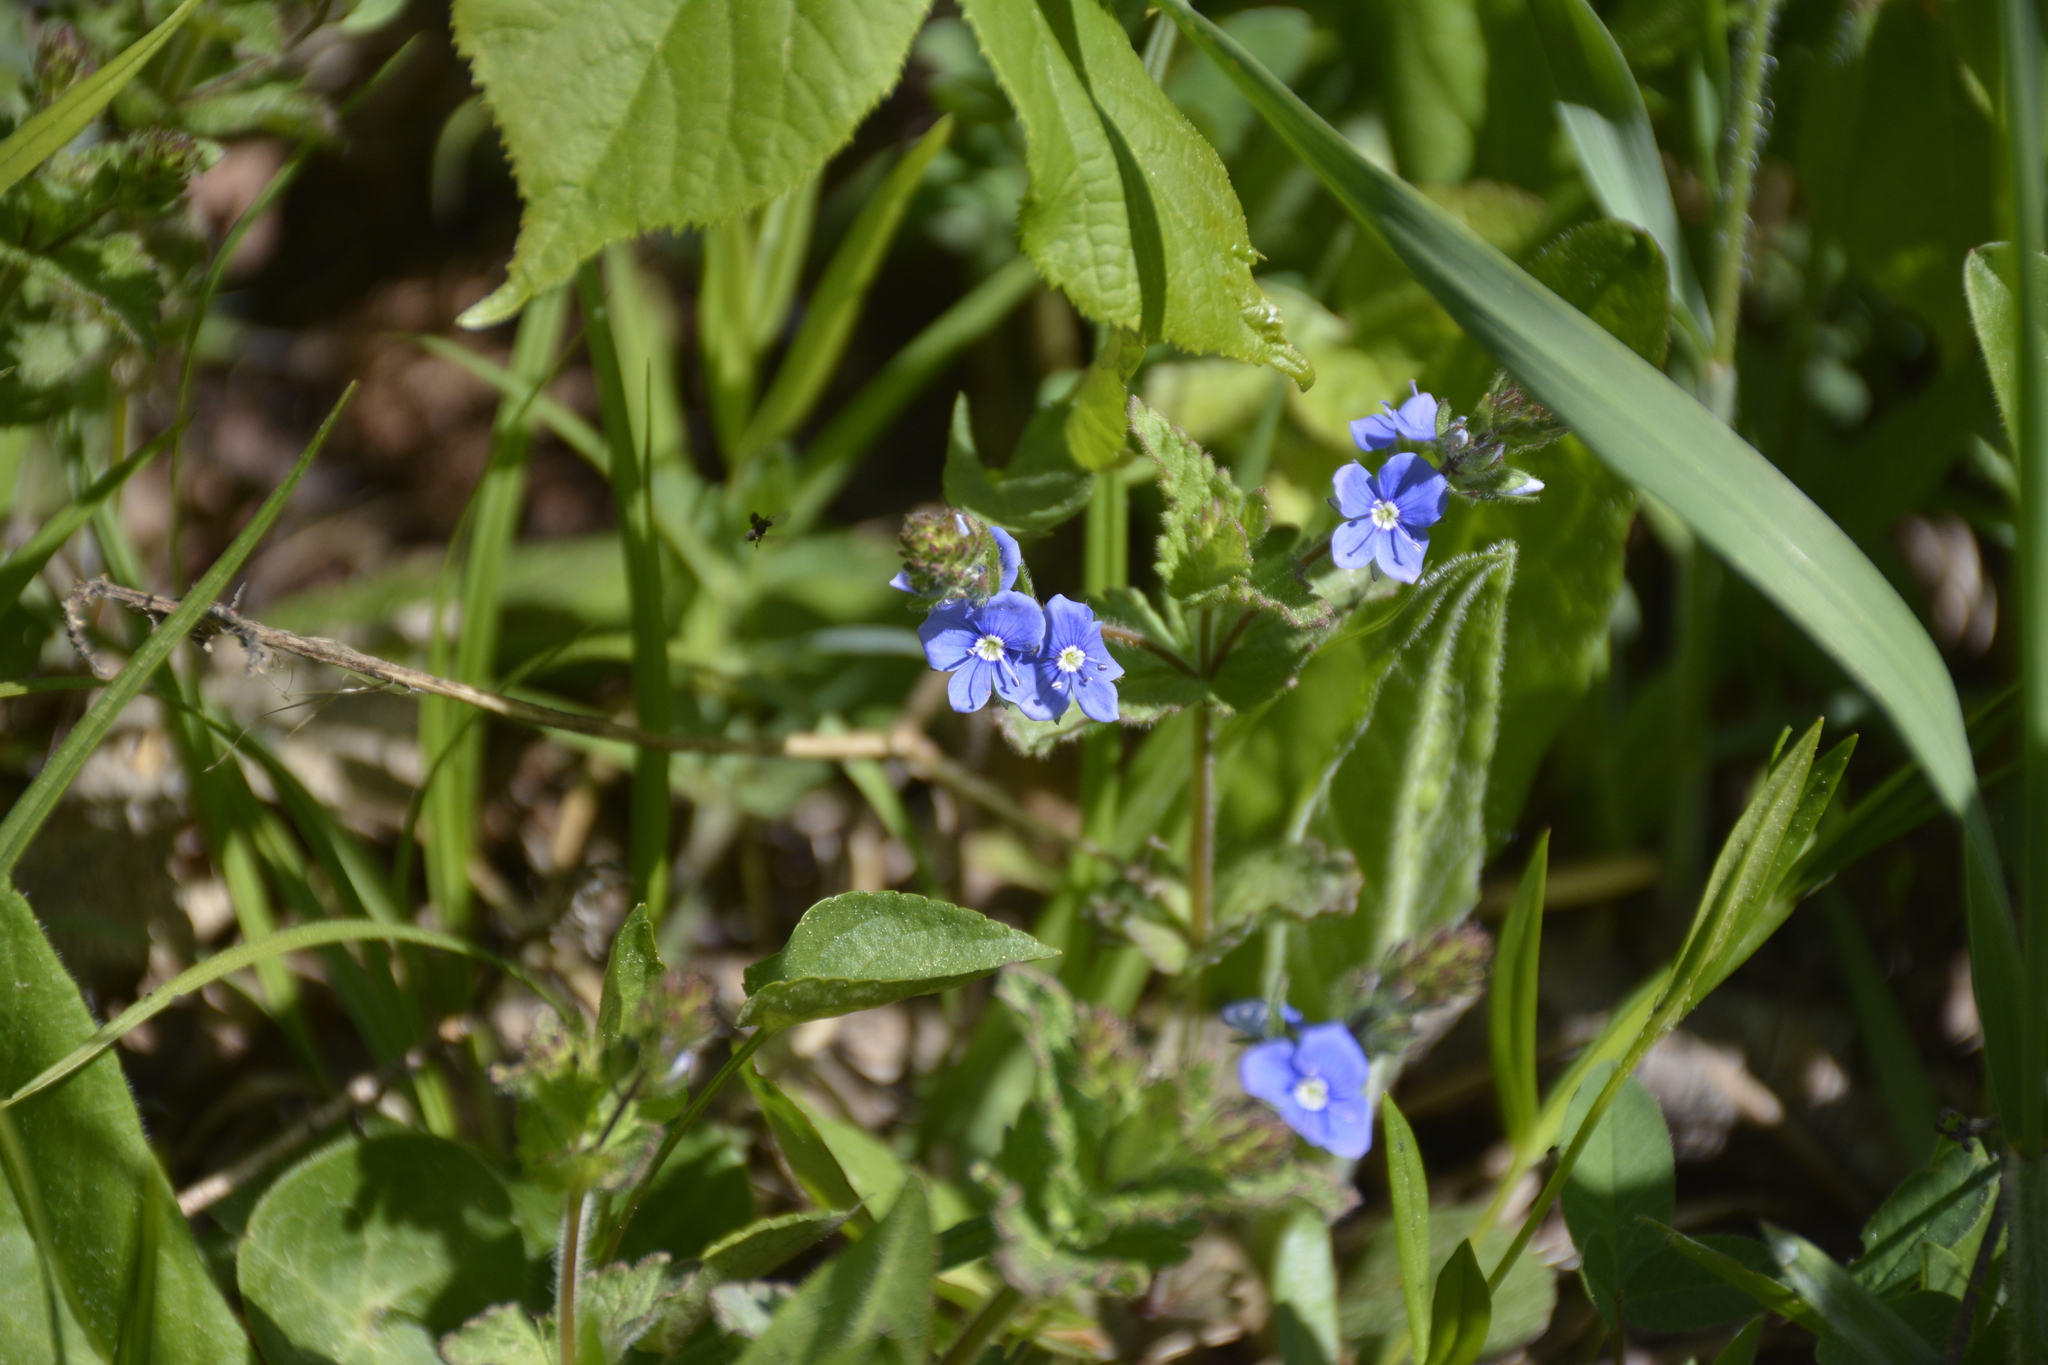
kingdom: Plantae
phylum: Tracheophyta
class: Magnoliopsida
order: Lamiales
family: Plantaginaceae
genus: Veronica
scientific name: Veronica chamaedrys
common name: Germander speedwell
